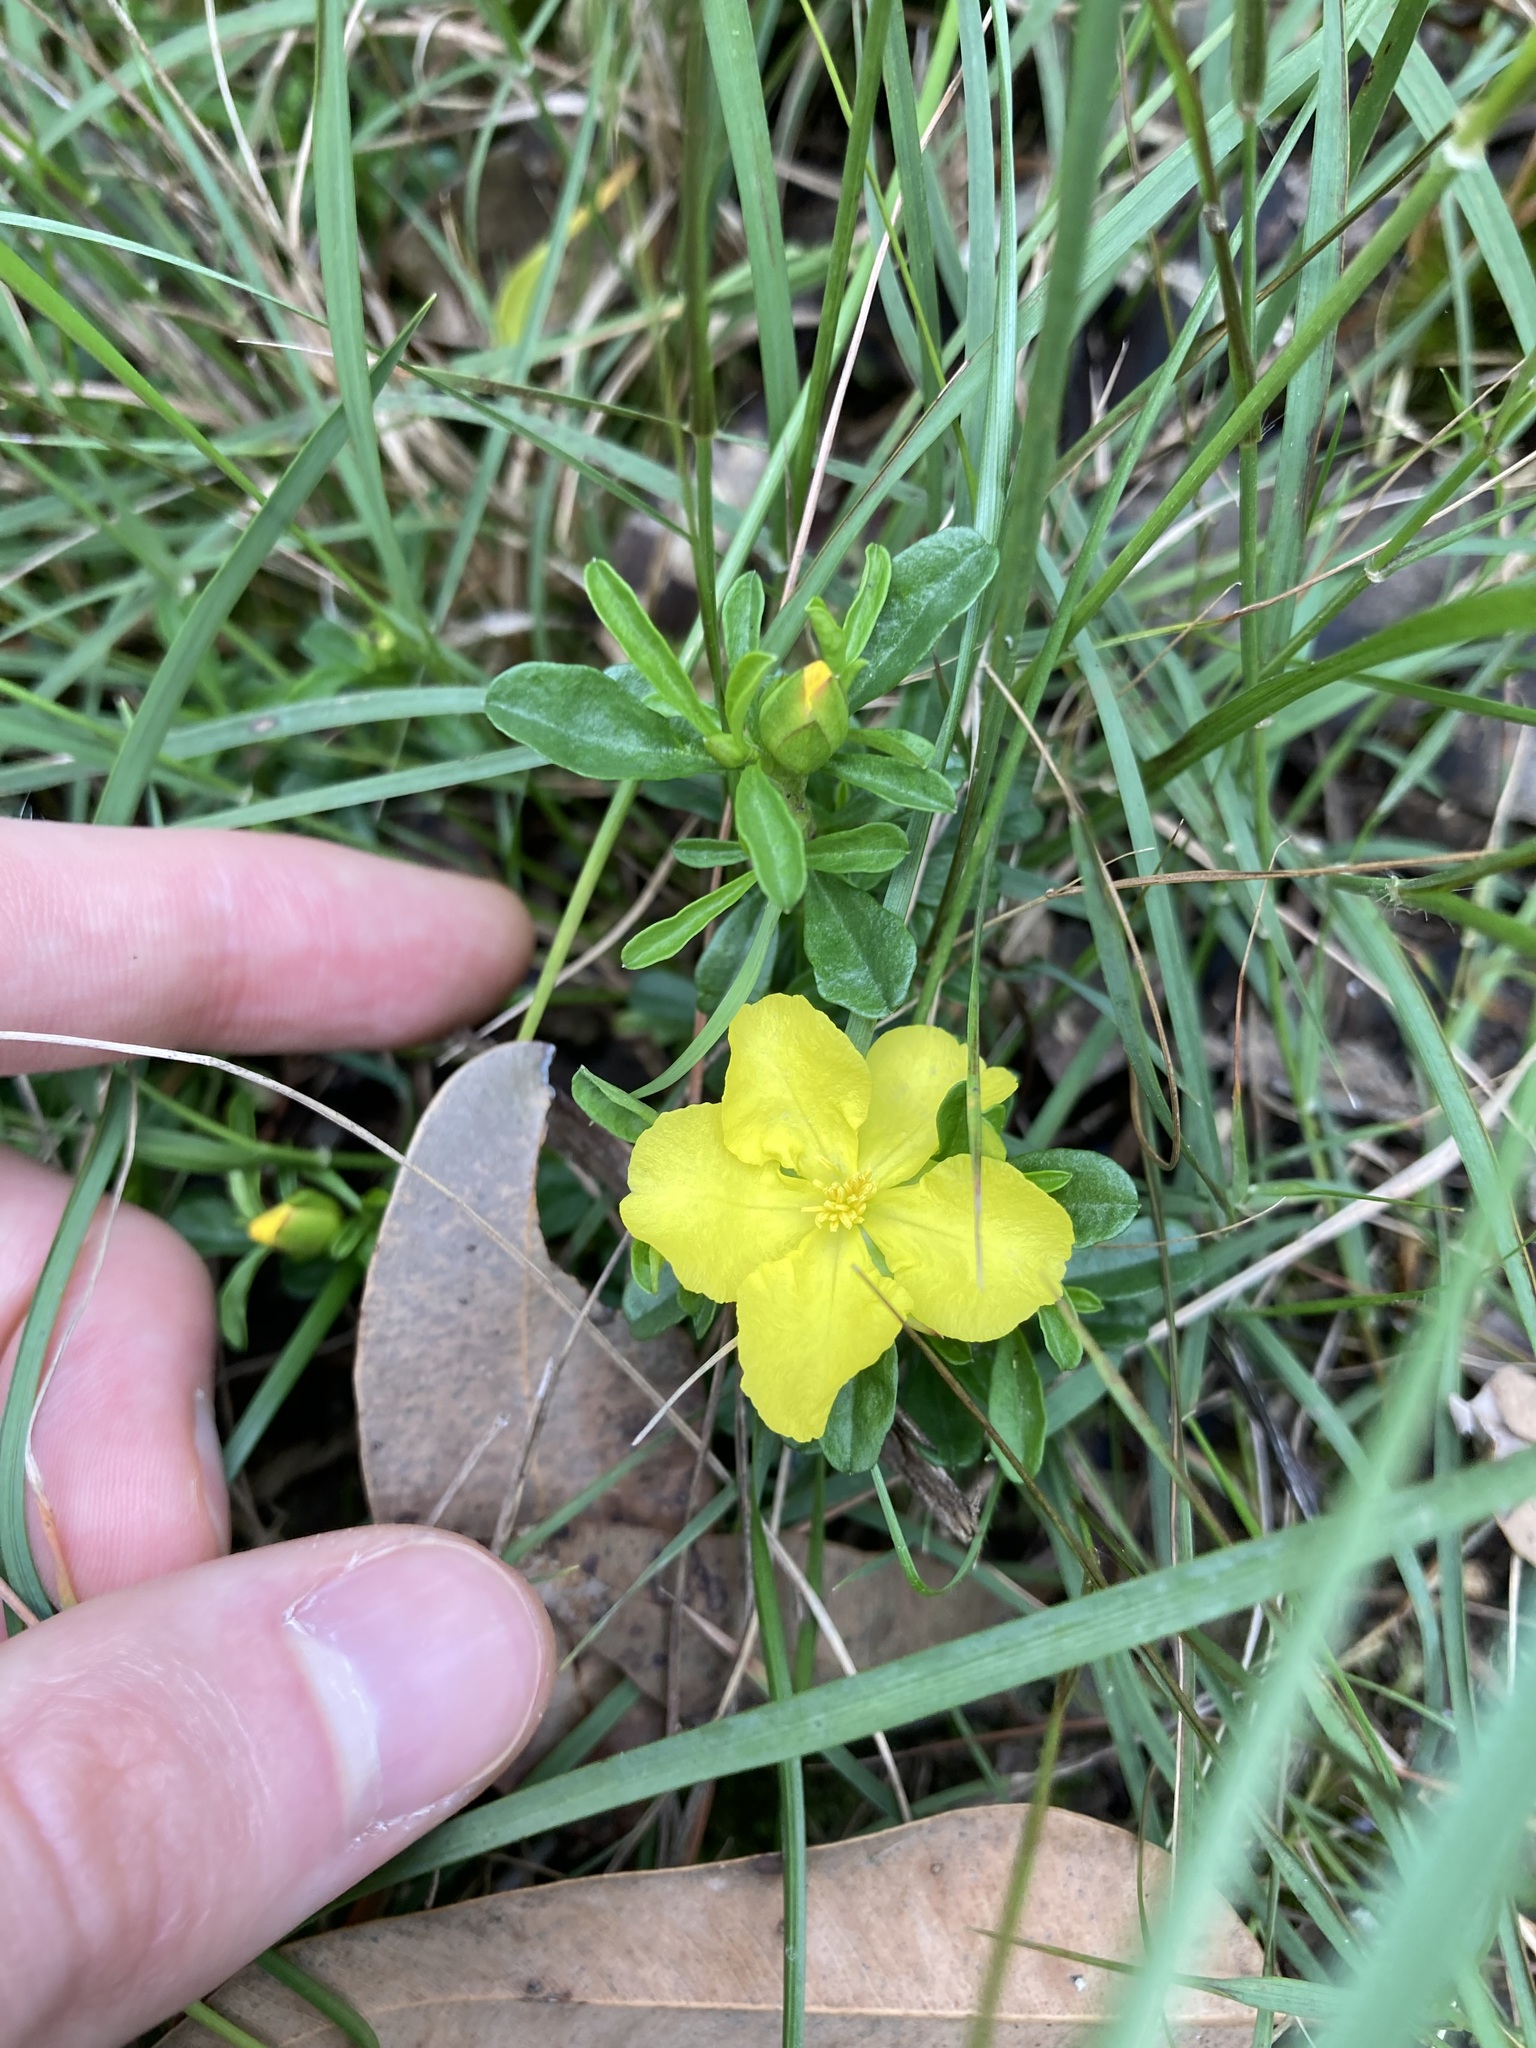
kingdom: Plantae
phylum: Tracheophyta
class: Magnoliopsida
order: Dilleniales
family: Dilleniaceae
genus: Hibbertia
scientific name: Hibbertia diffusa
